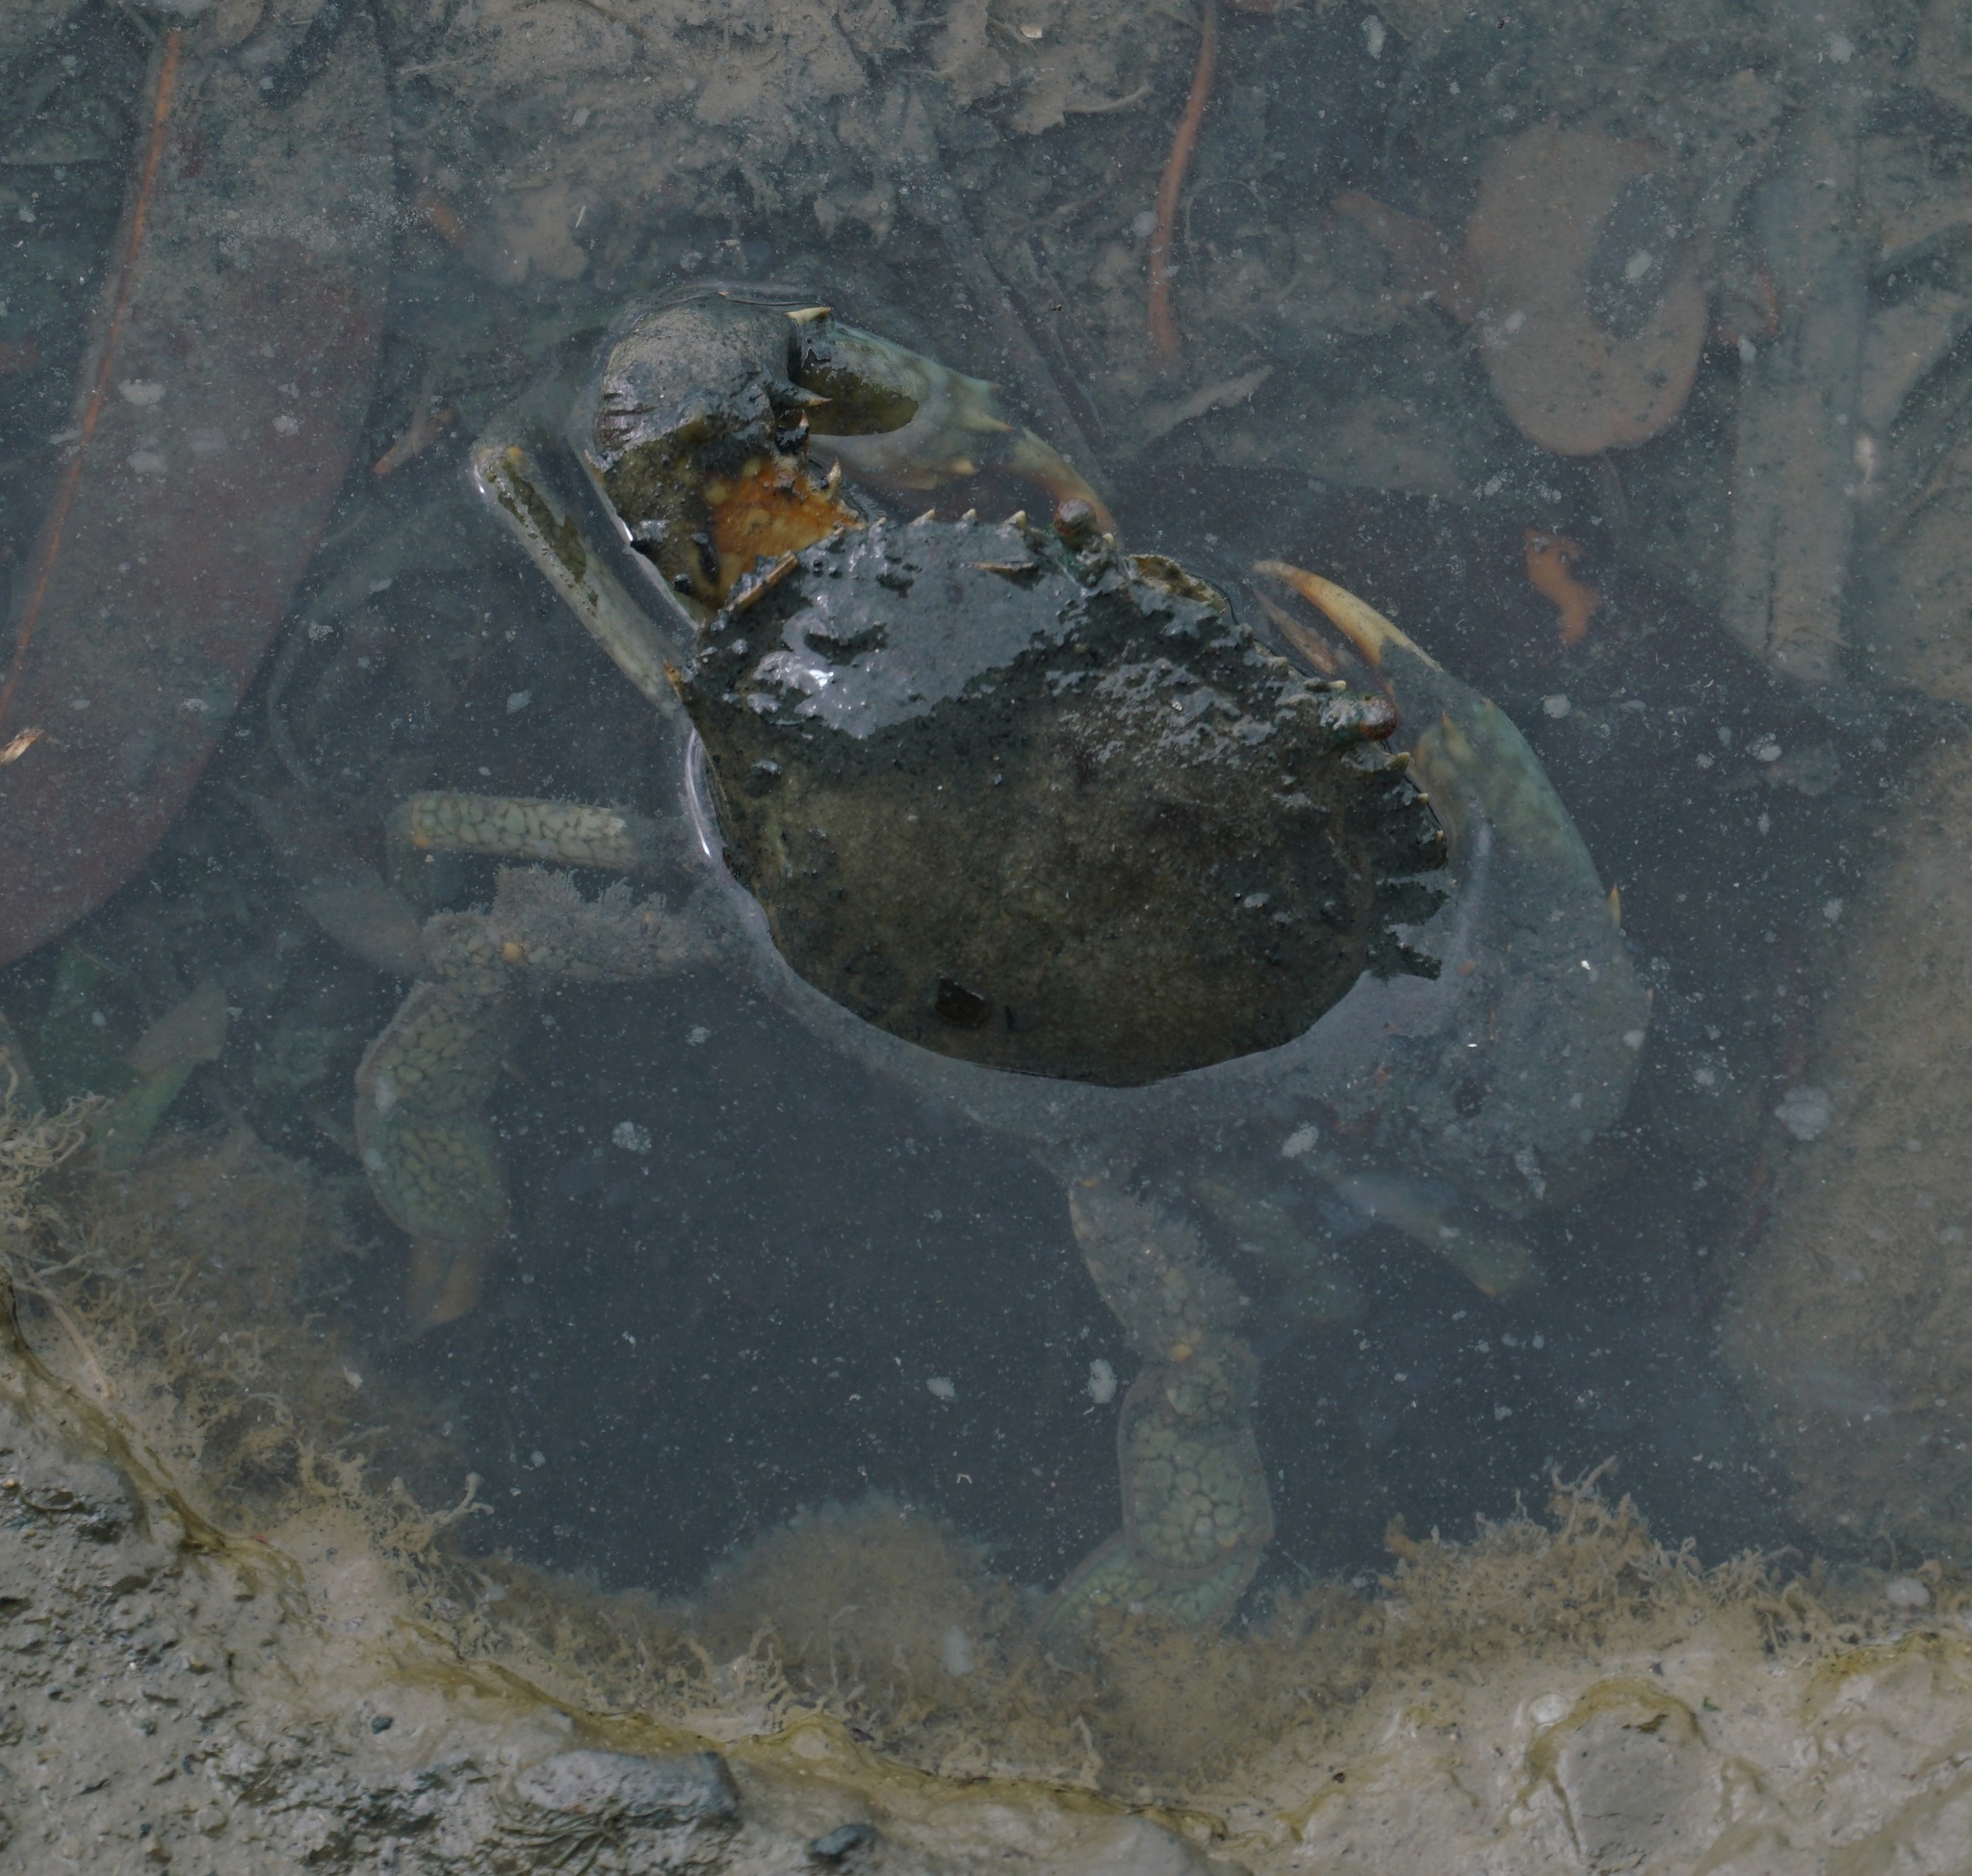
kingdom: Animalia
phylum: Arthropoda
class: Malacostraca
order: Decapoda
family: Portunidae
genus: Scylla
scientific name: Scylla serrata
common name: Giant mud crab
